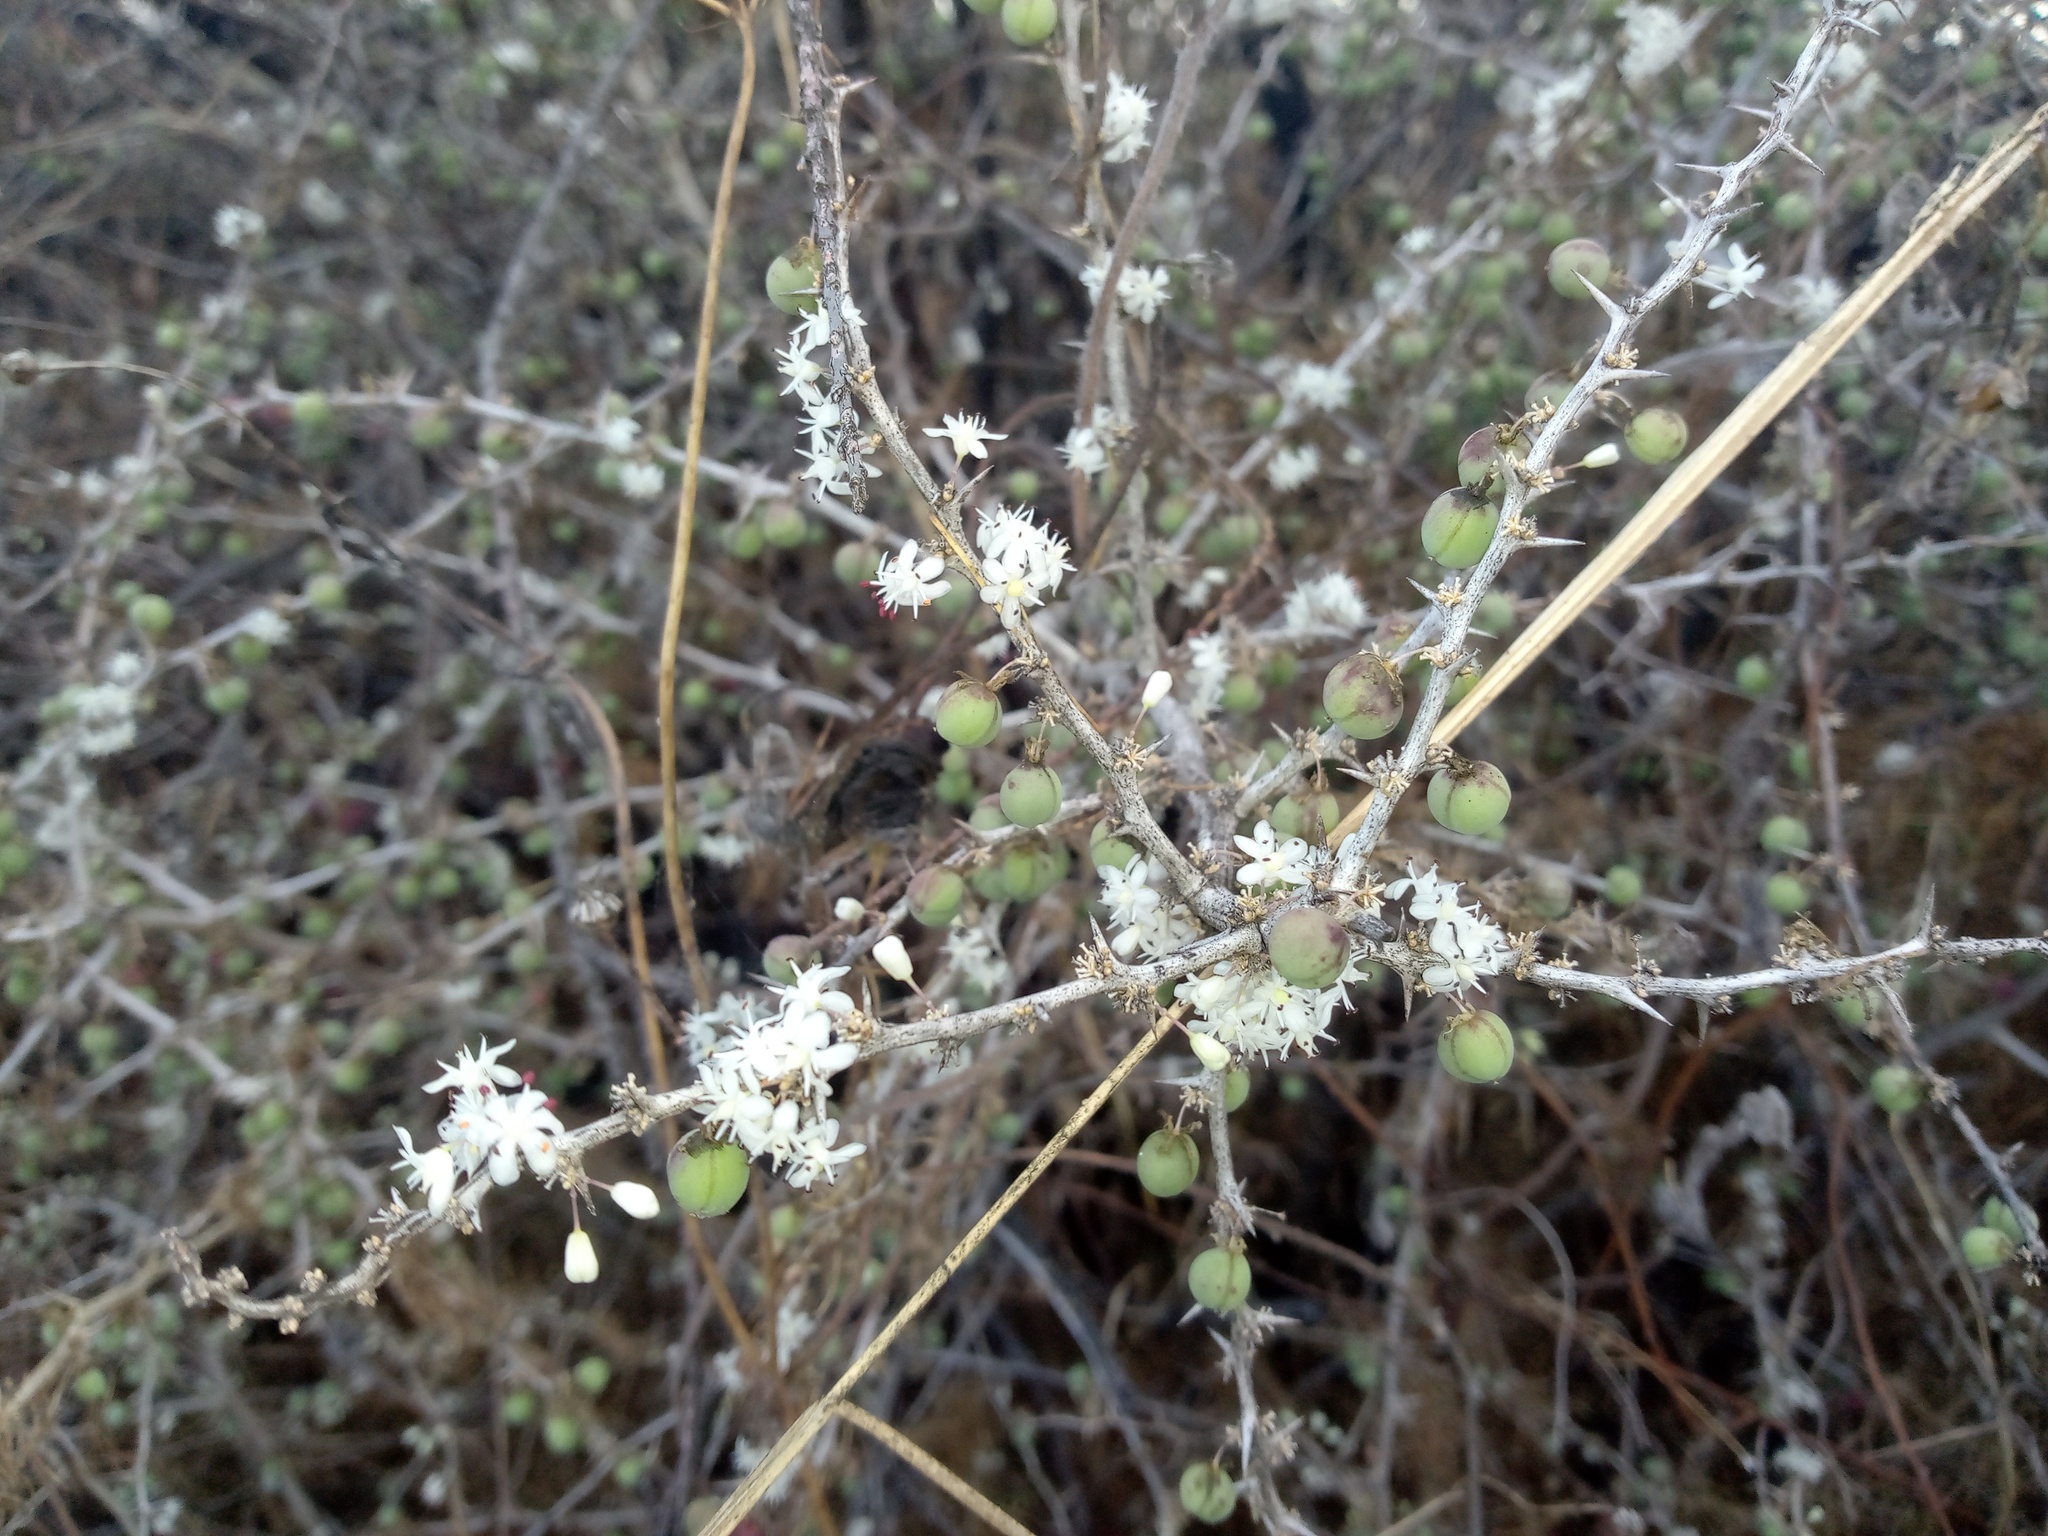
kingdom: Plantae
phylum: Tracheophyta
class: Liliopsida
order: Asparagales
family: Asparagaceae
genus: Asparagus
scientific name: Asparagus albus
